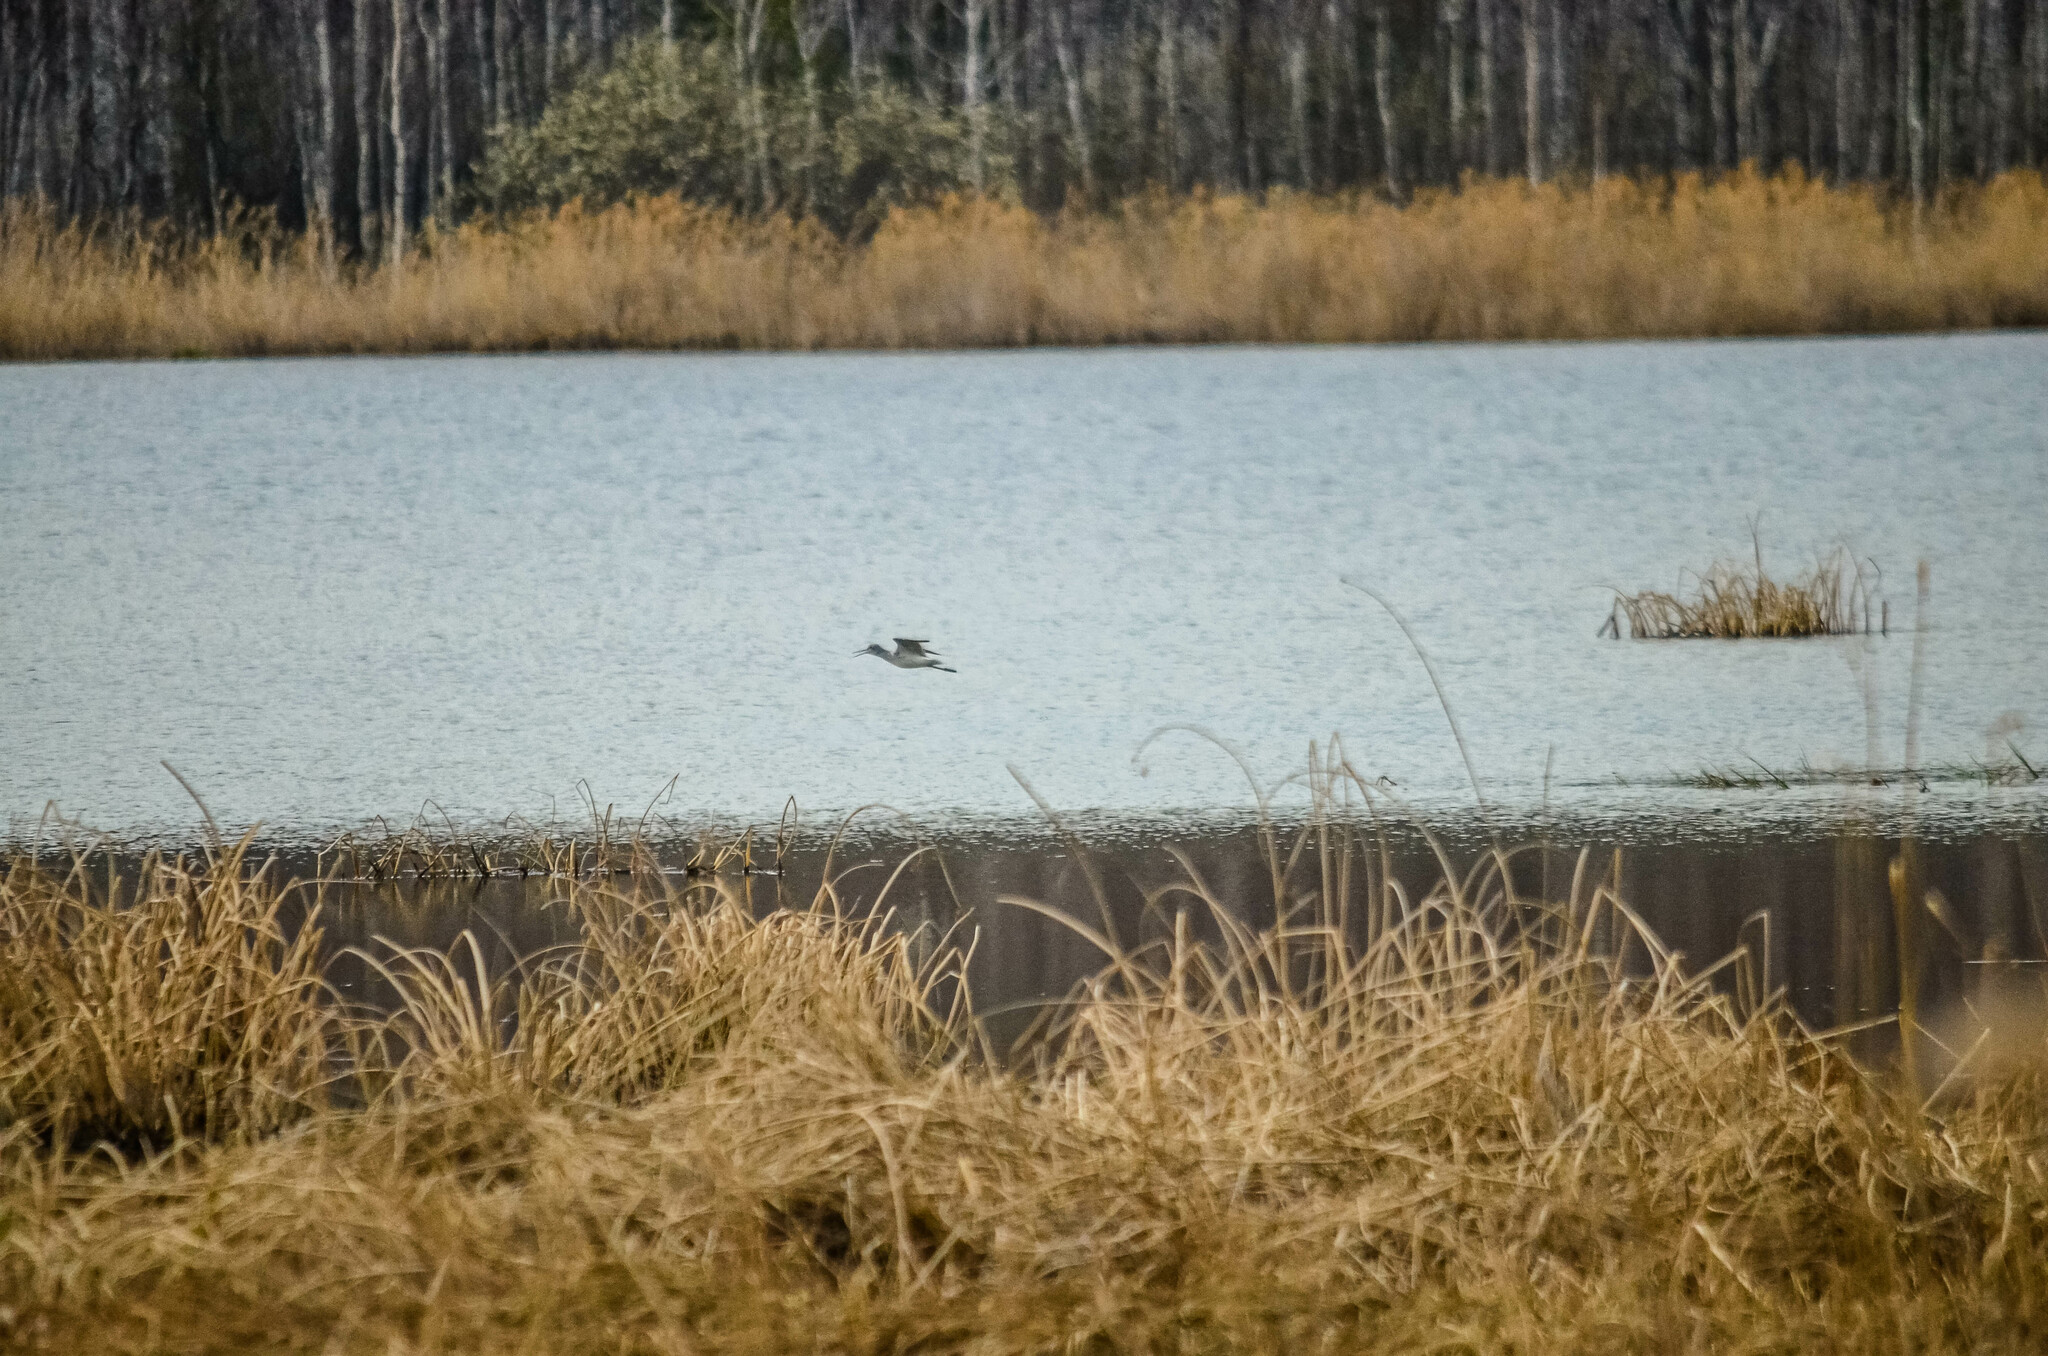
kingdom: Animalia
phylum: Chordata
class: Aves
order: Charadriiformes
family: Scolopacidae
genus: Tringa
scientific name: Tringa nebularia
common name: Common greenshank
